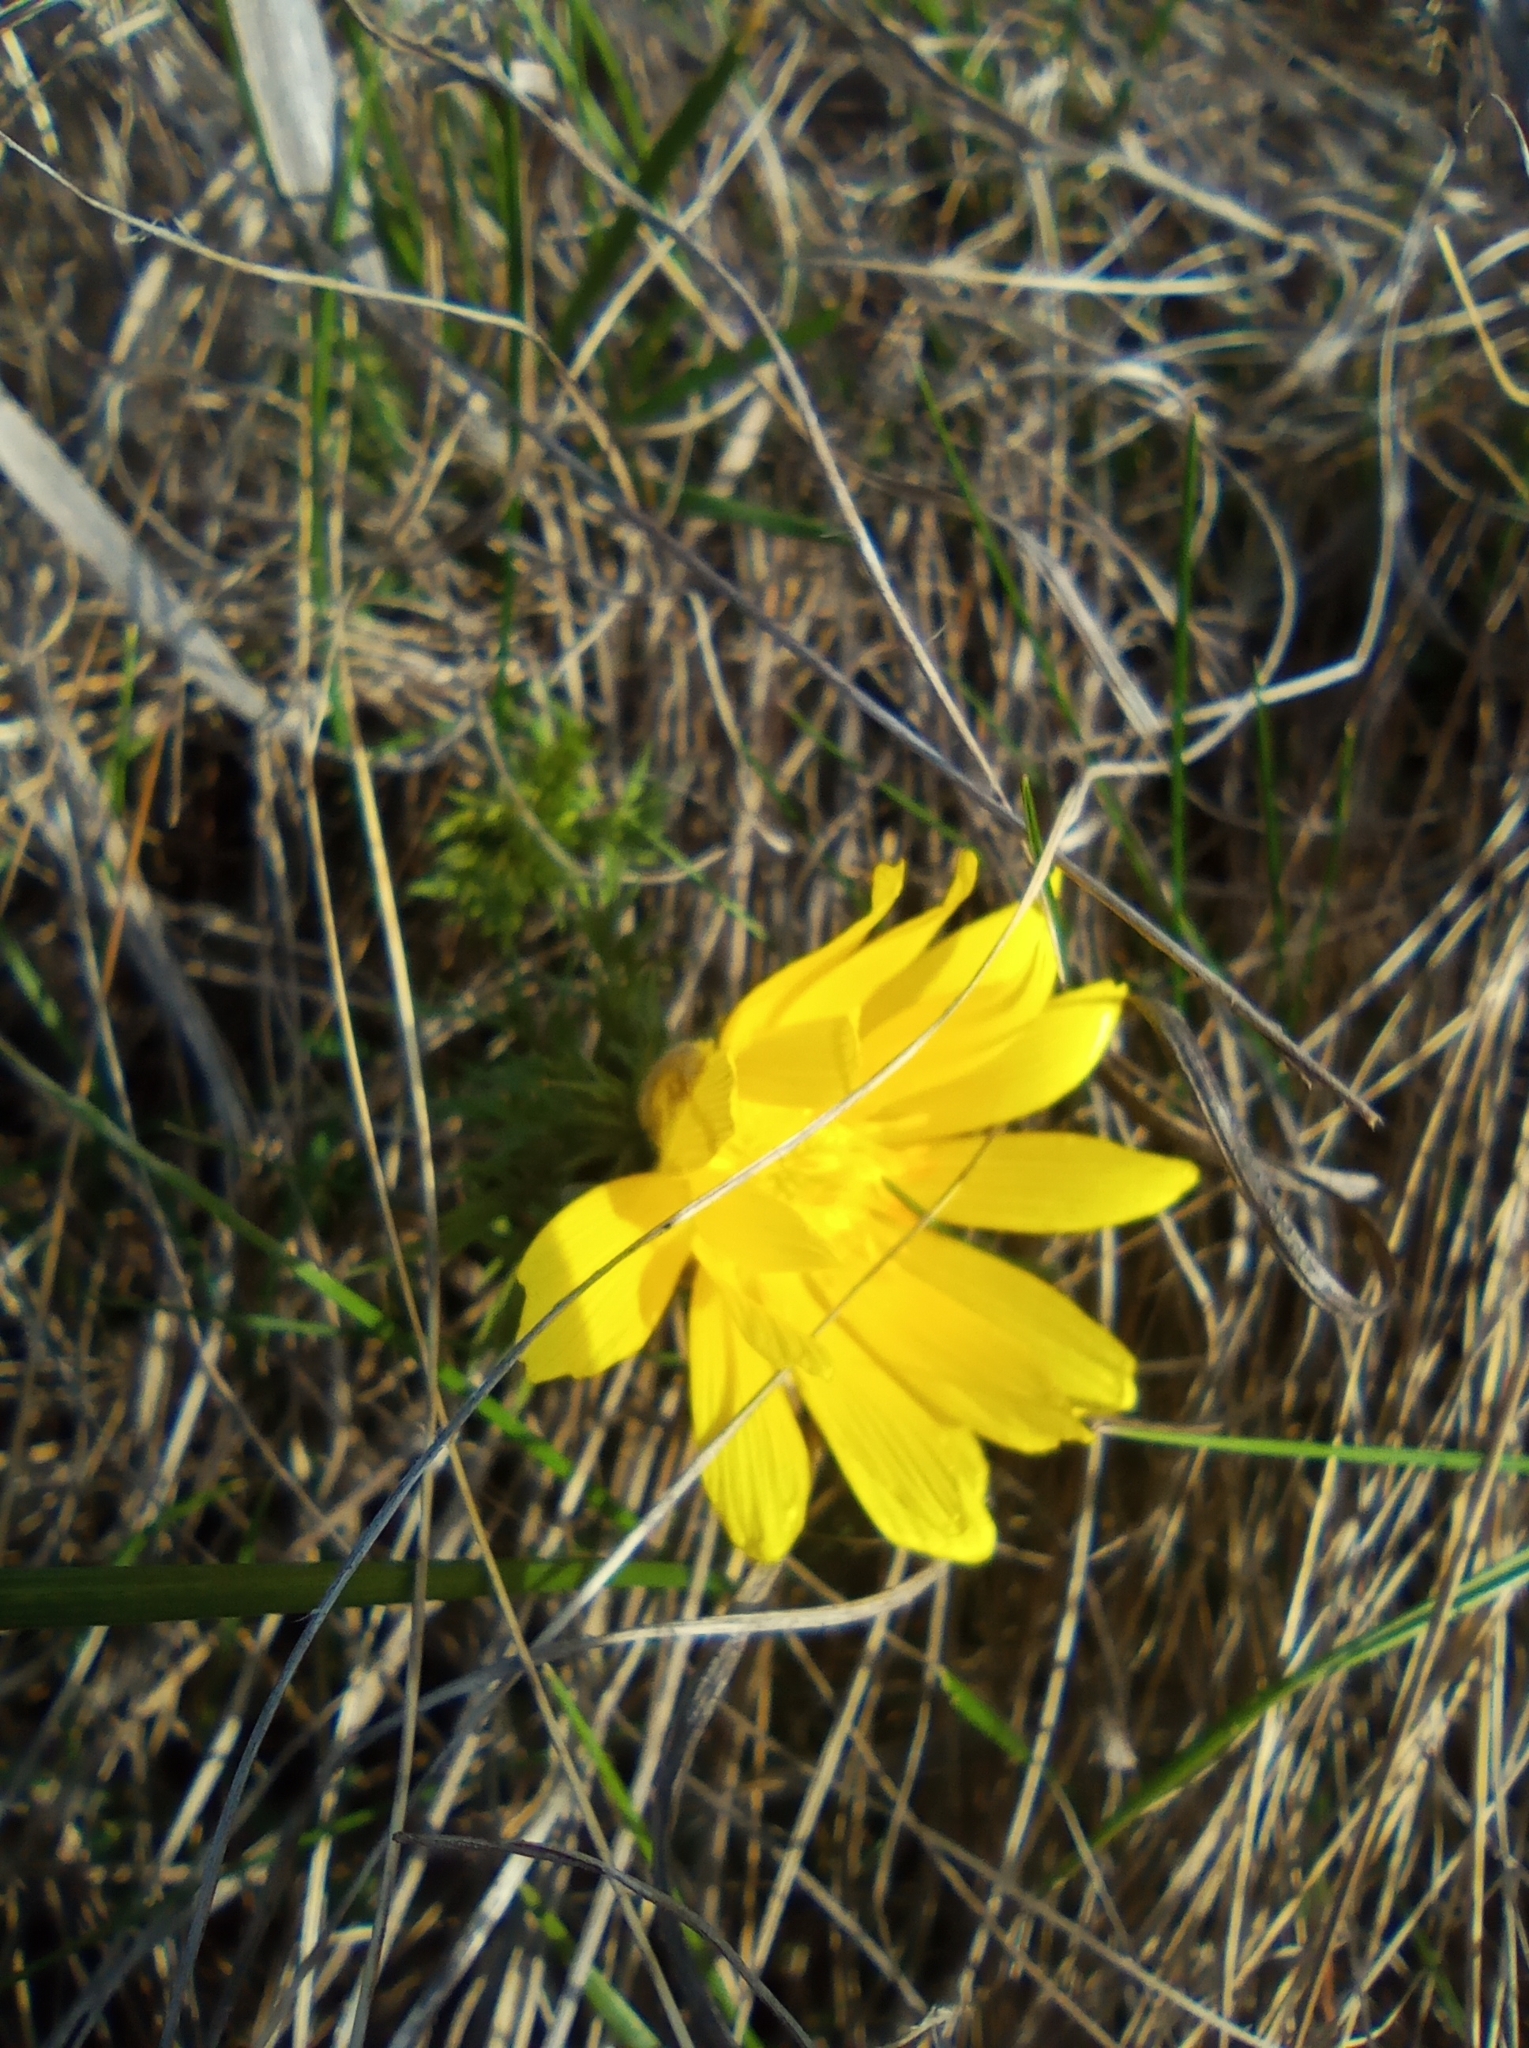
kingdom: Plantae
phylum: Tracheophyta
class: Magnoliopsida
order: Ranunculales
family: Ranunculaceae
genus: Adonis
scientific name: Adonis volgensis
